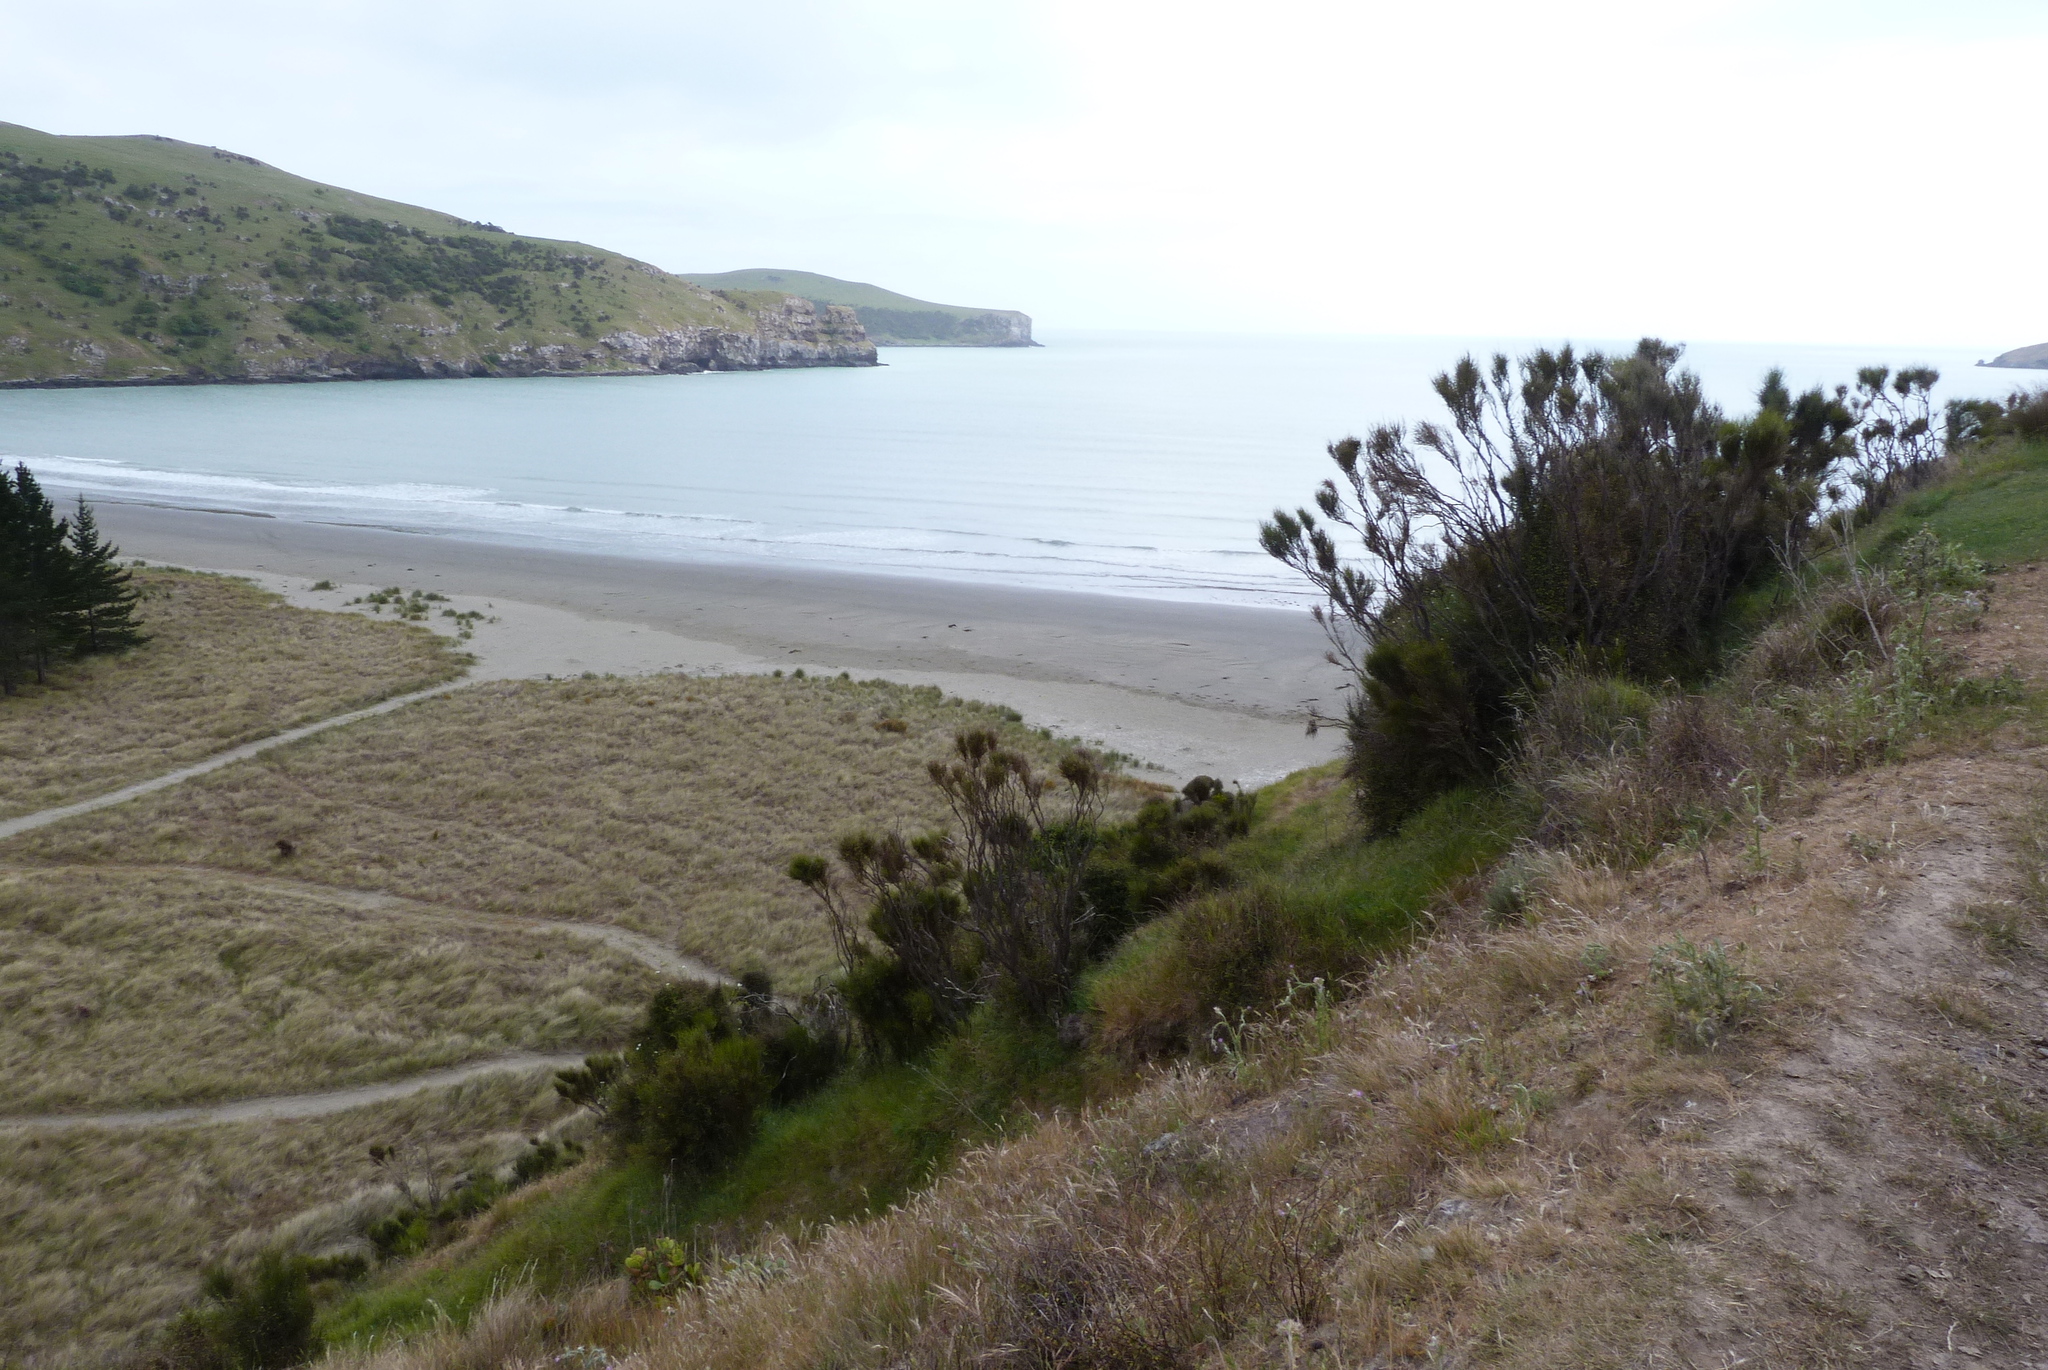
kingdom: Plantae
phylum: Tracheophyta
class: Magnoliopsida
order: Fabales
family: Fabaceae
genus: Carmichaelia
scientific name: Carmichaelia australis
